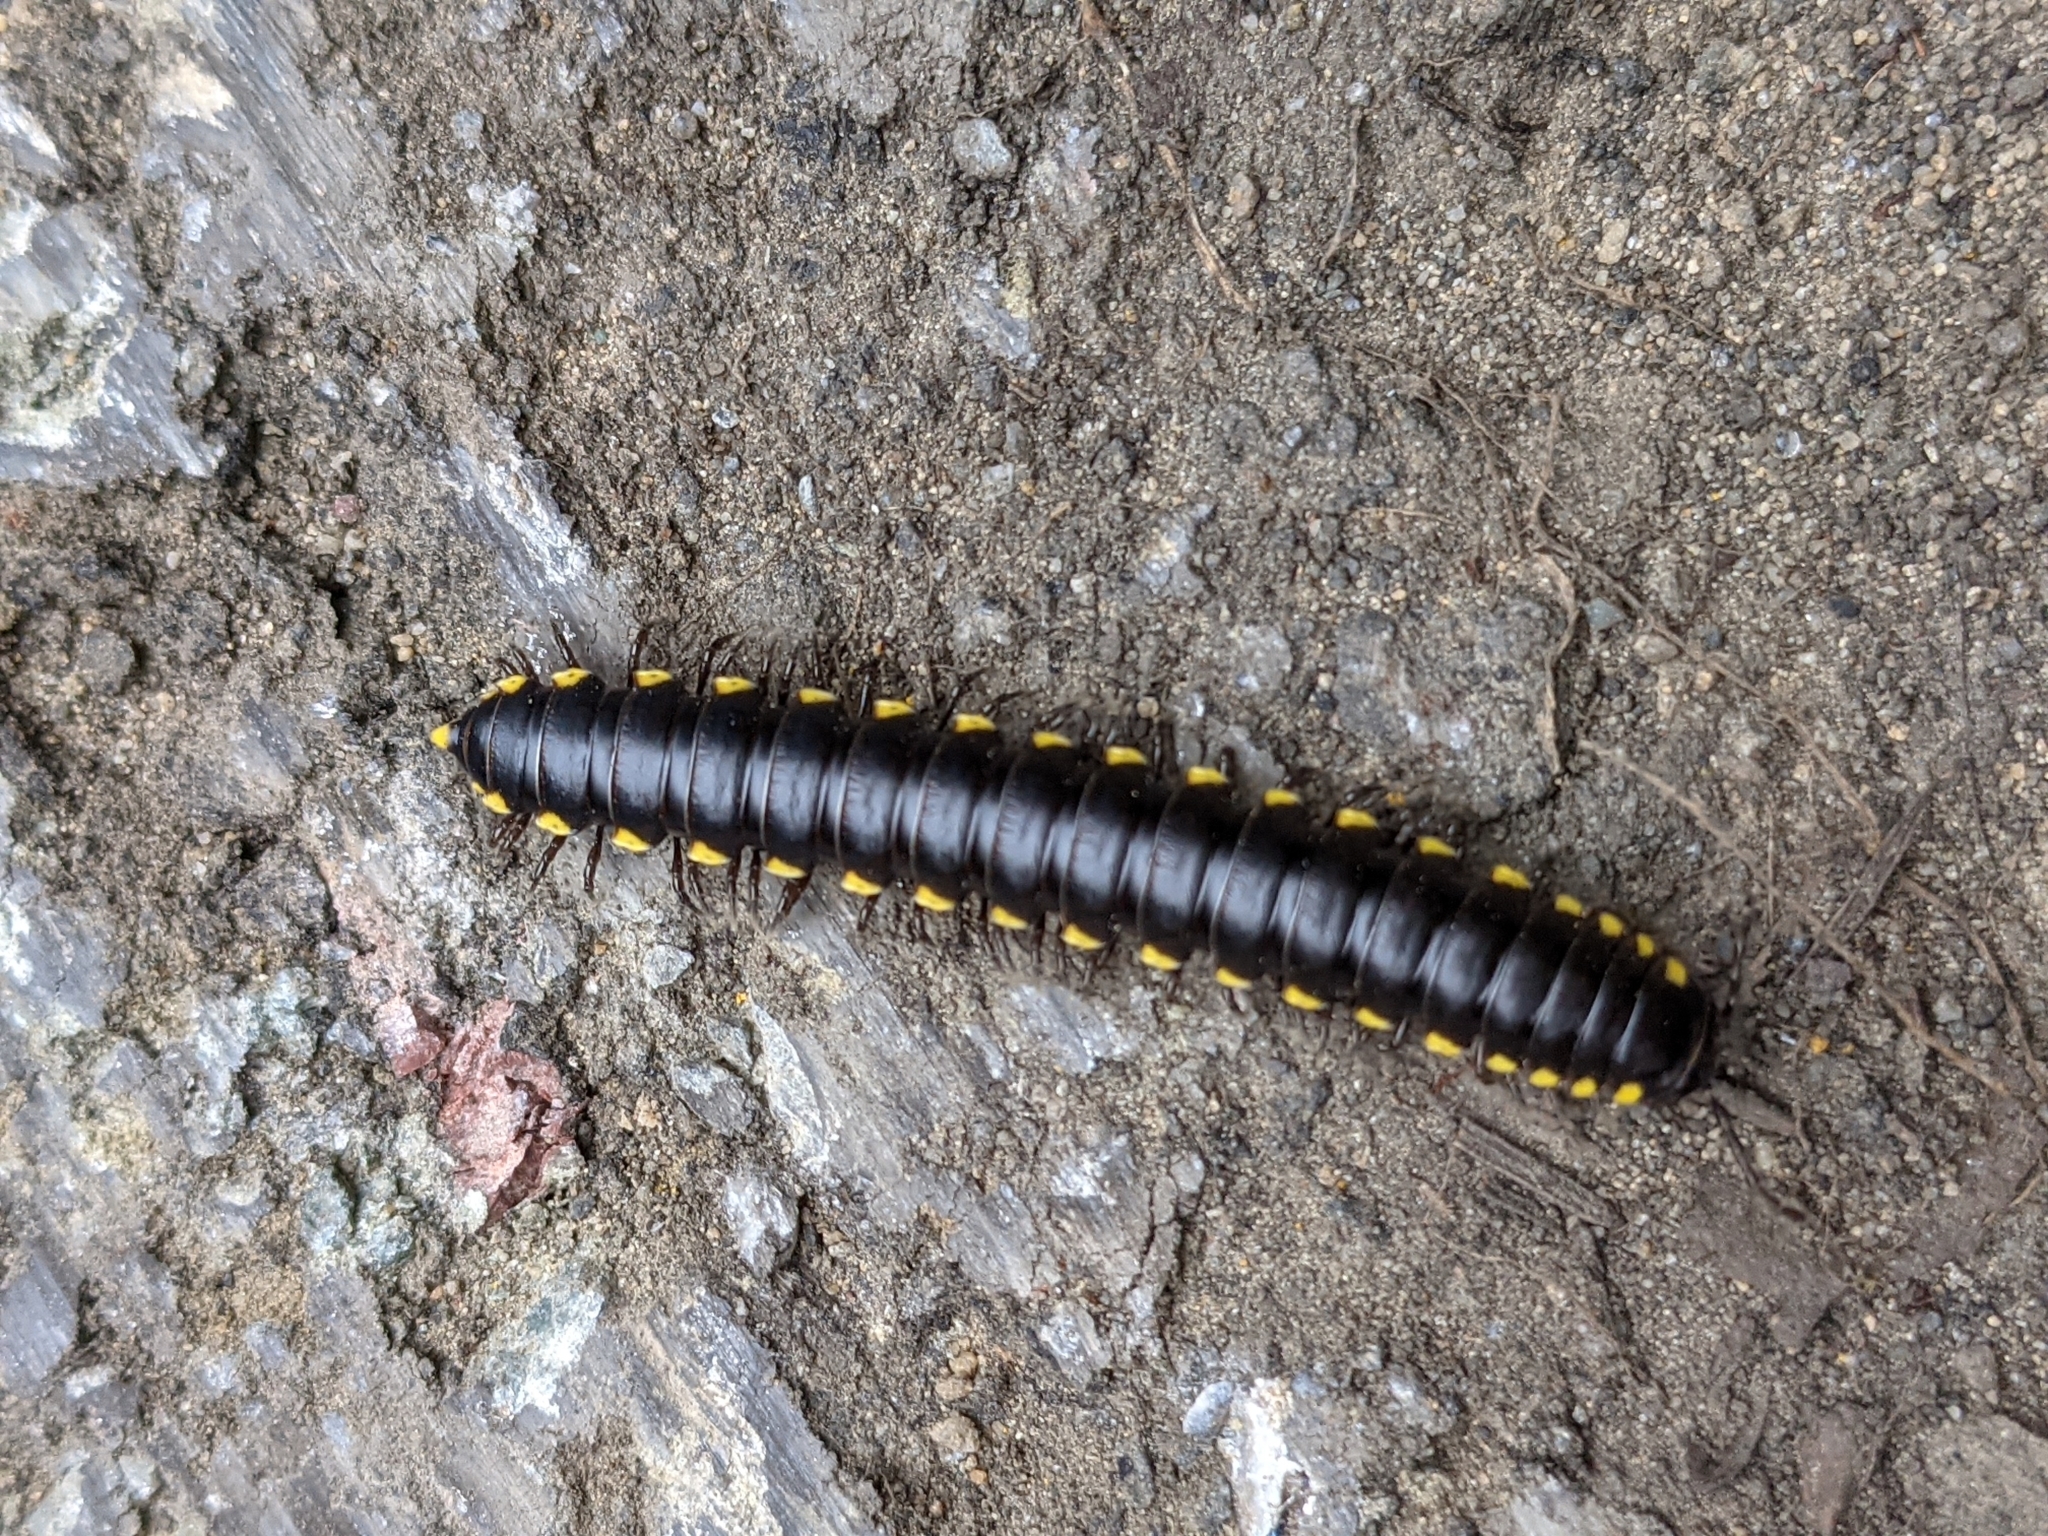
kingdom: Animalia
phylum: Arthropoda
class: Diplopoda
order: Polydesmida
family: Xystodesmidae
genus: Harpaphe
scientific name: Harpaphe haydeniana
